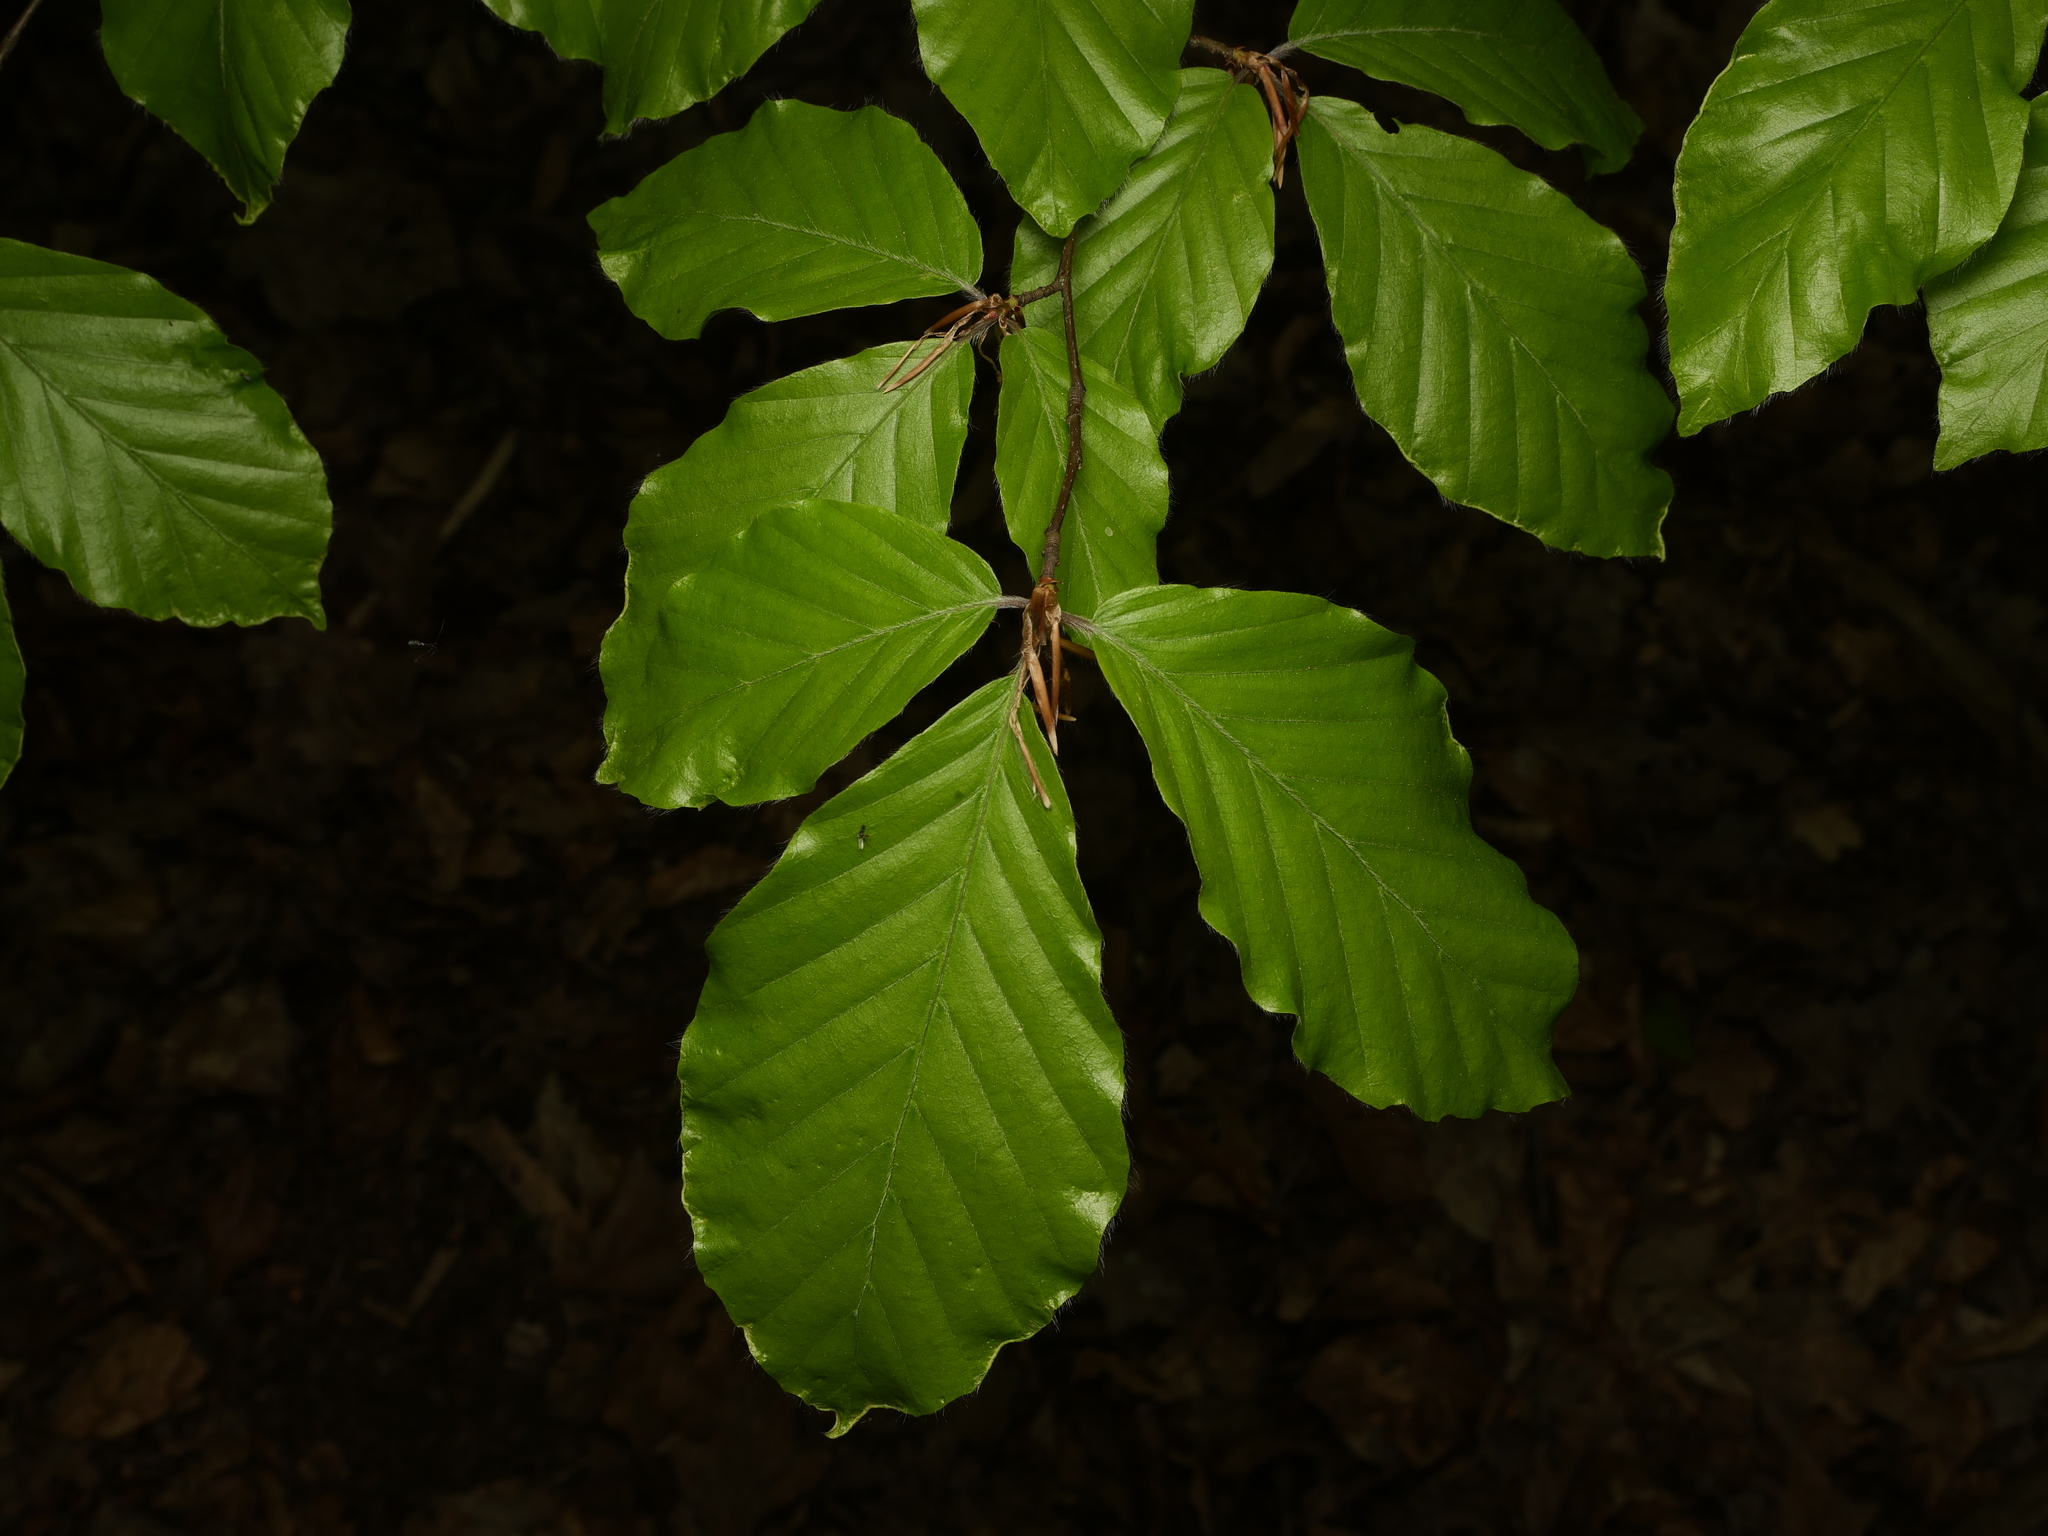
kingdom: Plantae
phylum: Tracheophyta
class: Magnoliopsida
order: Fagales
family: Fagaceae
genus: Fagus
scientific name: Fagus sylvatica
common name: Beech
